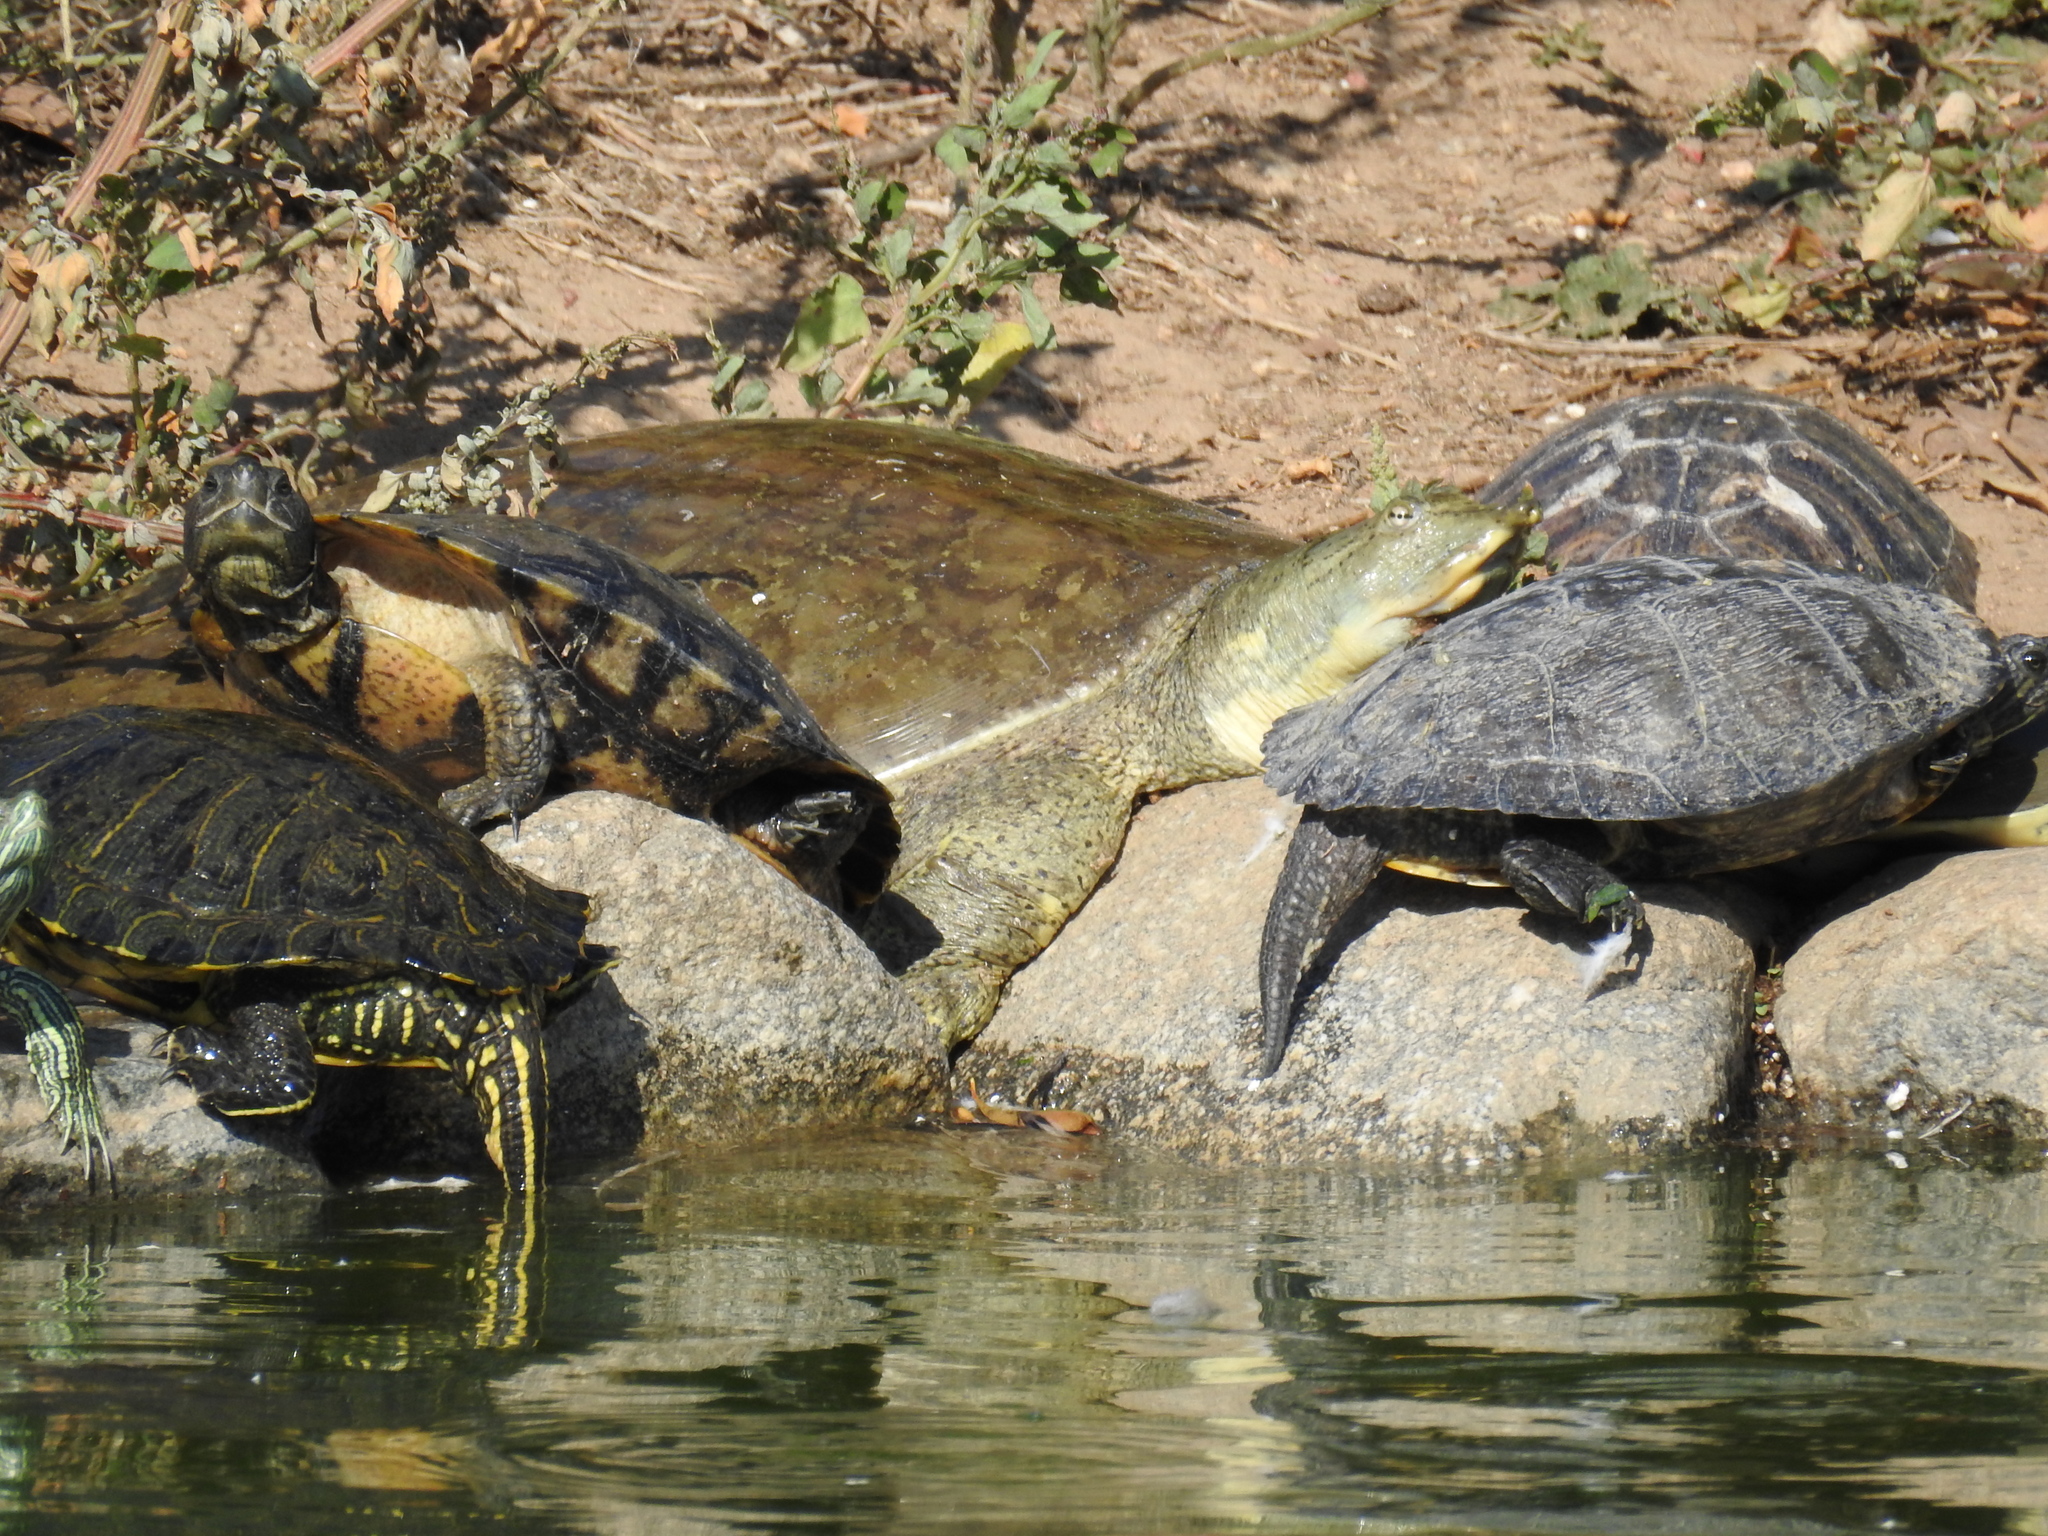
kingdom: Animalia
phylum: Chordata
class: Testudines
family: Trionychidae
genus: Apalone
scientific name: Apalone spinifera
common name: Spiny softshell turtle
